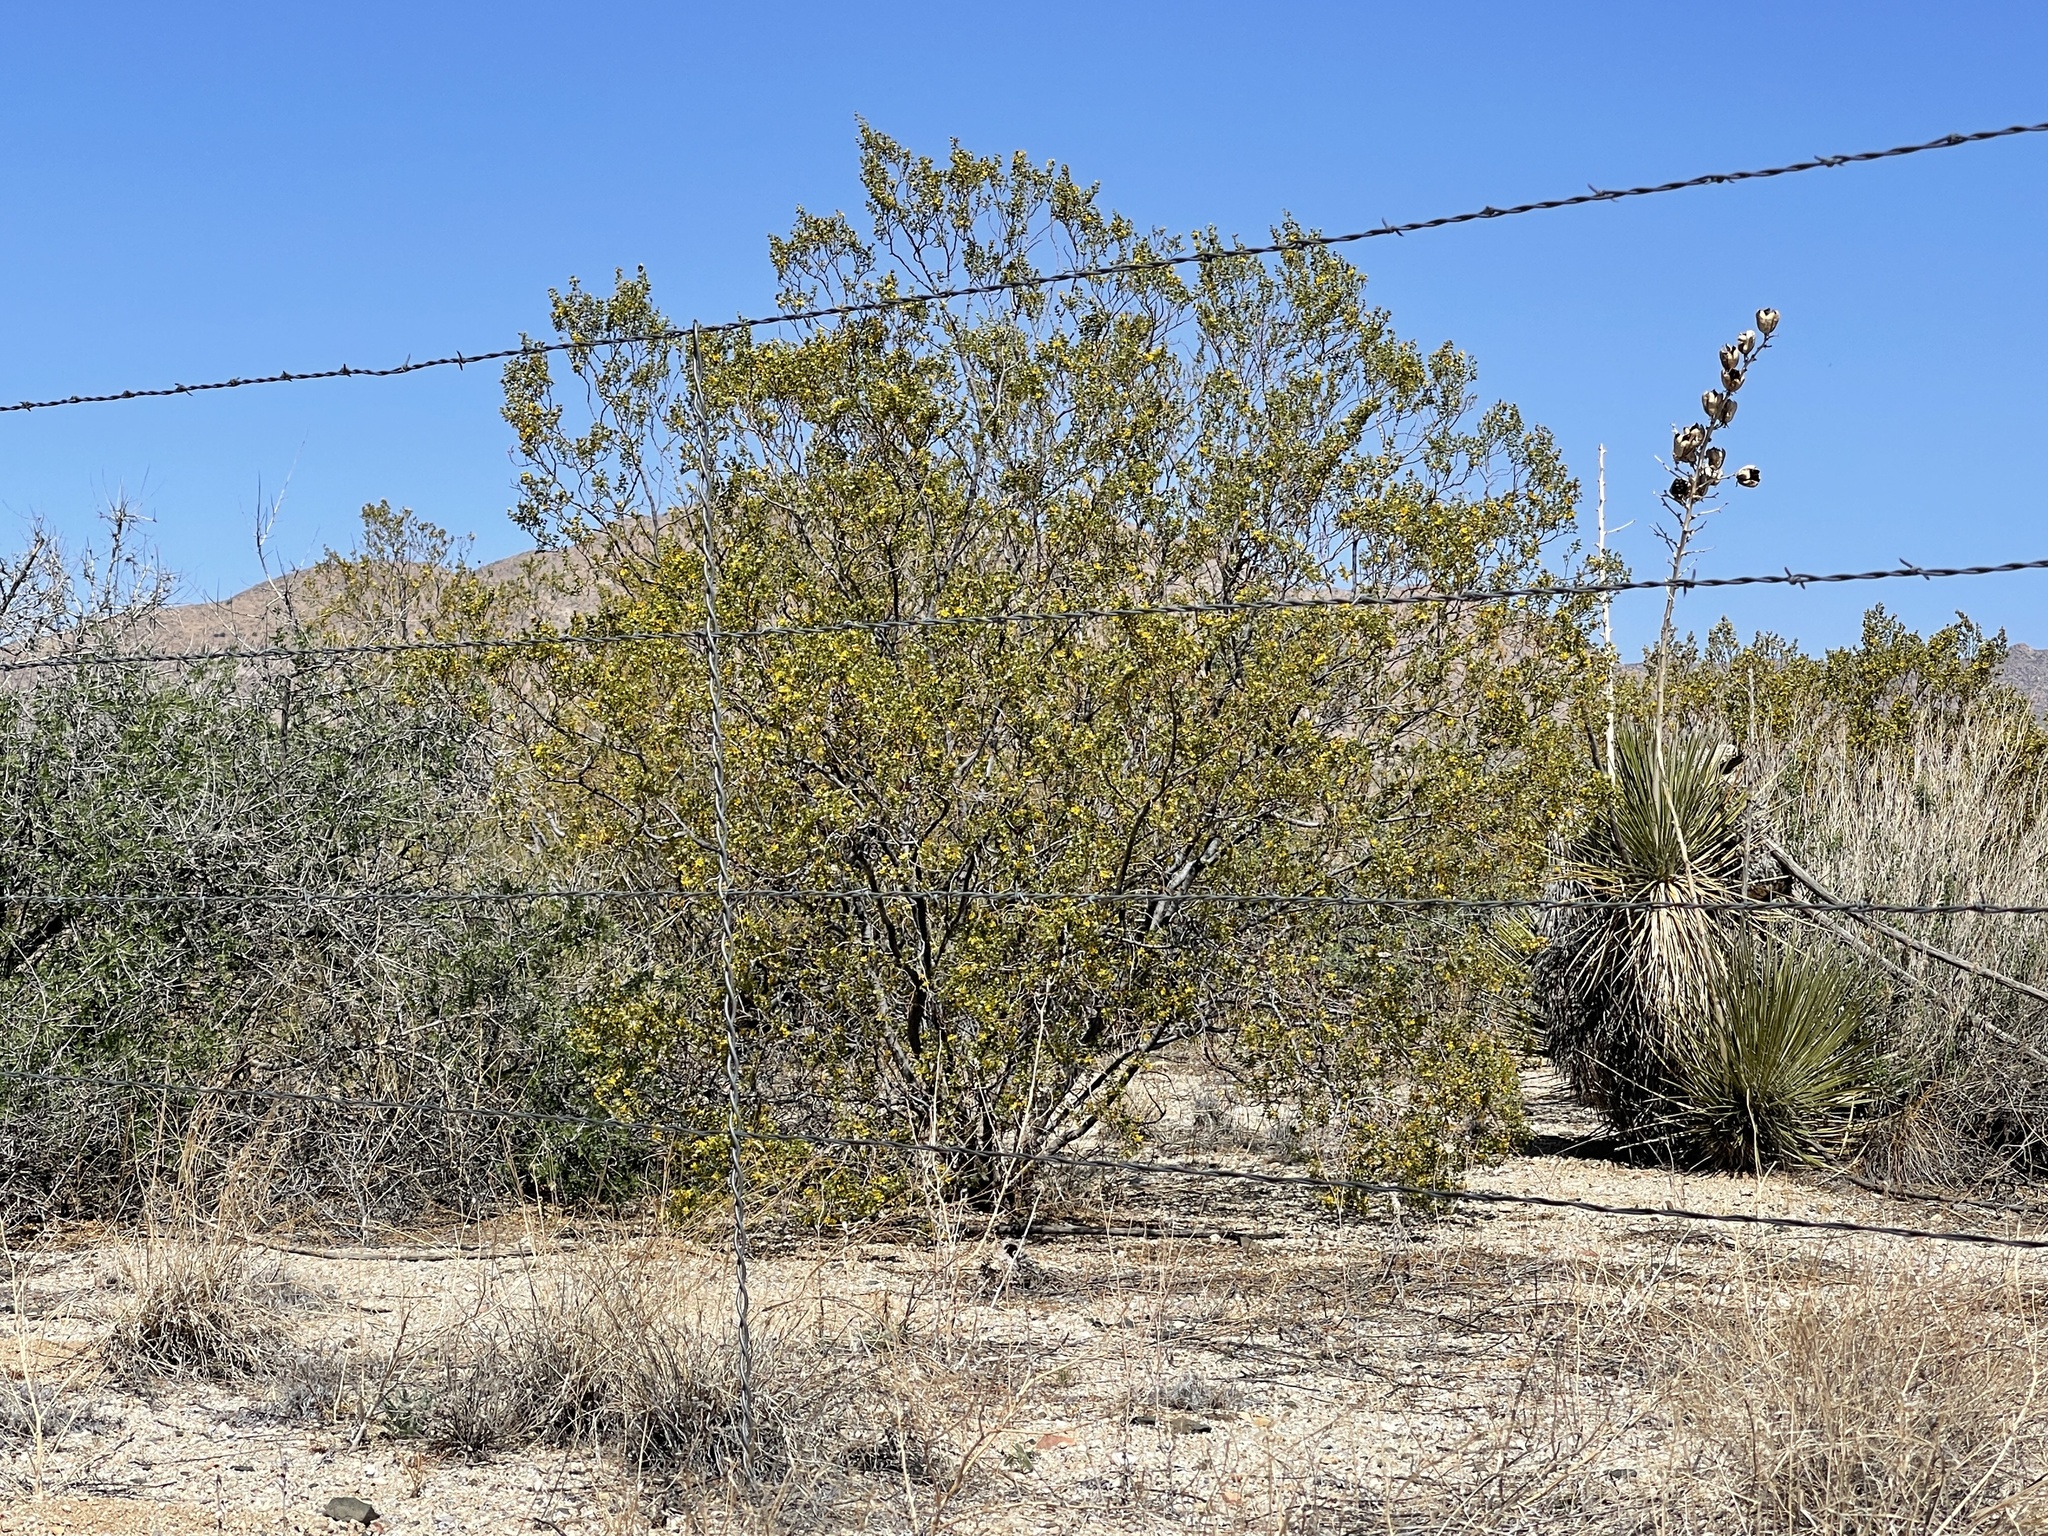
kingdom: Plantae
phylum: Tracheophyta
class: Magnoliopsida
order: Zygophyllales
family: Zygophyllaceae
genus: Larrea
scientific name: Larrea tridentata
